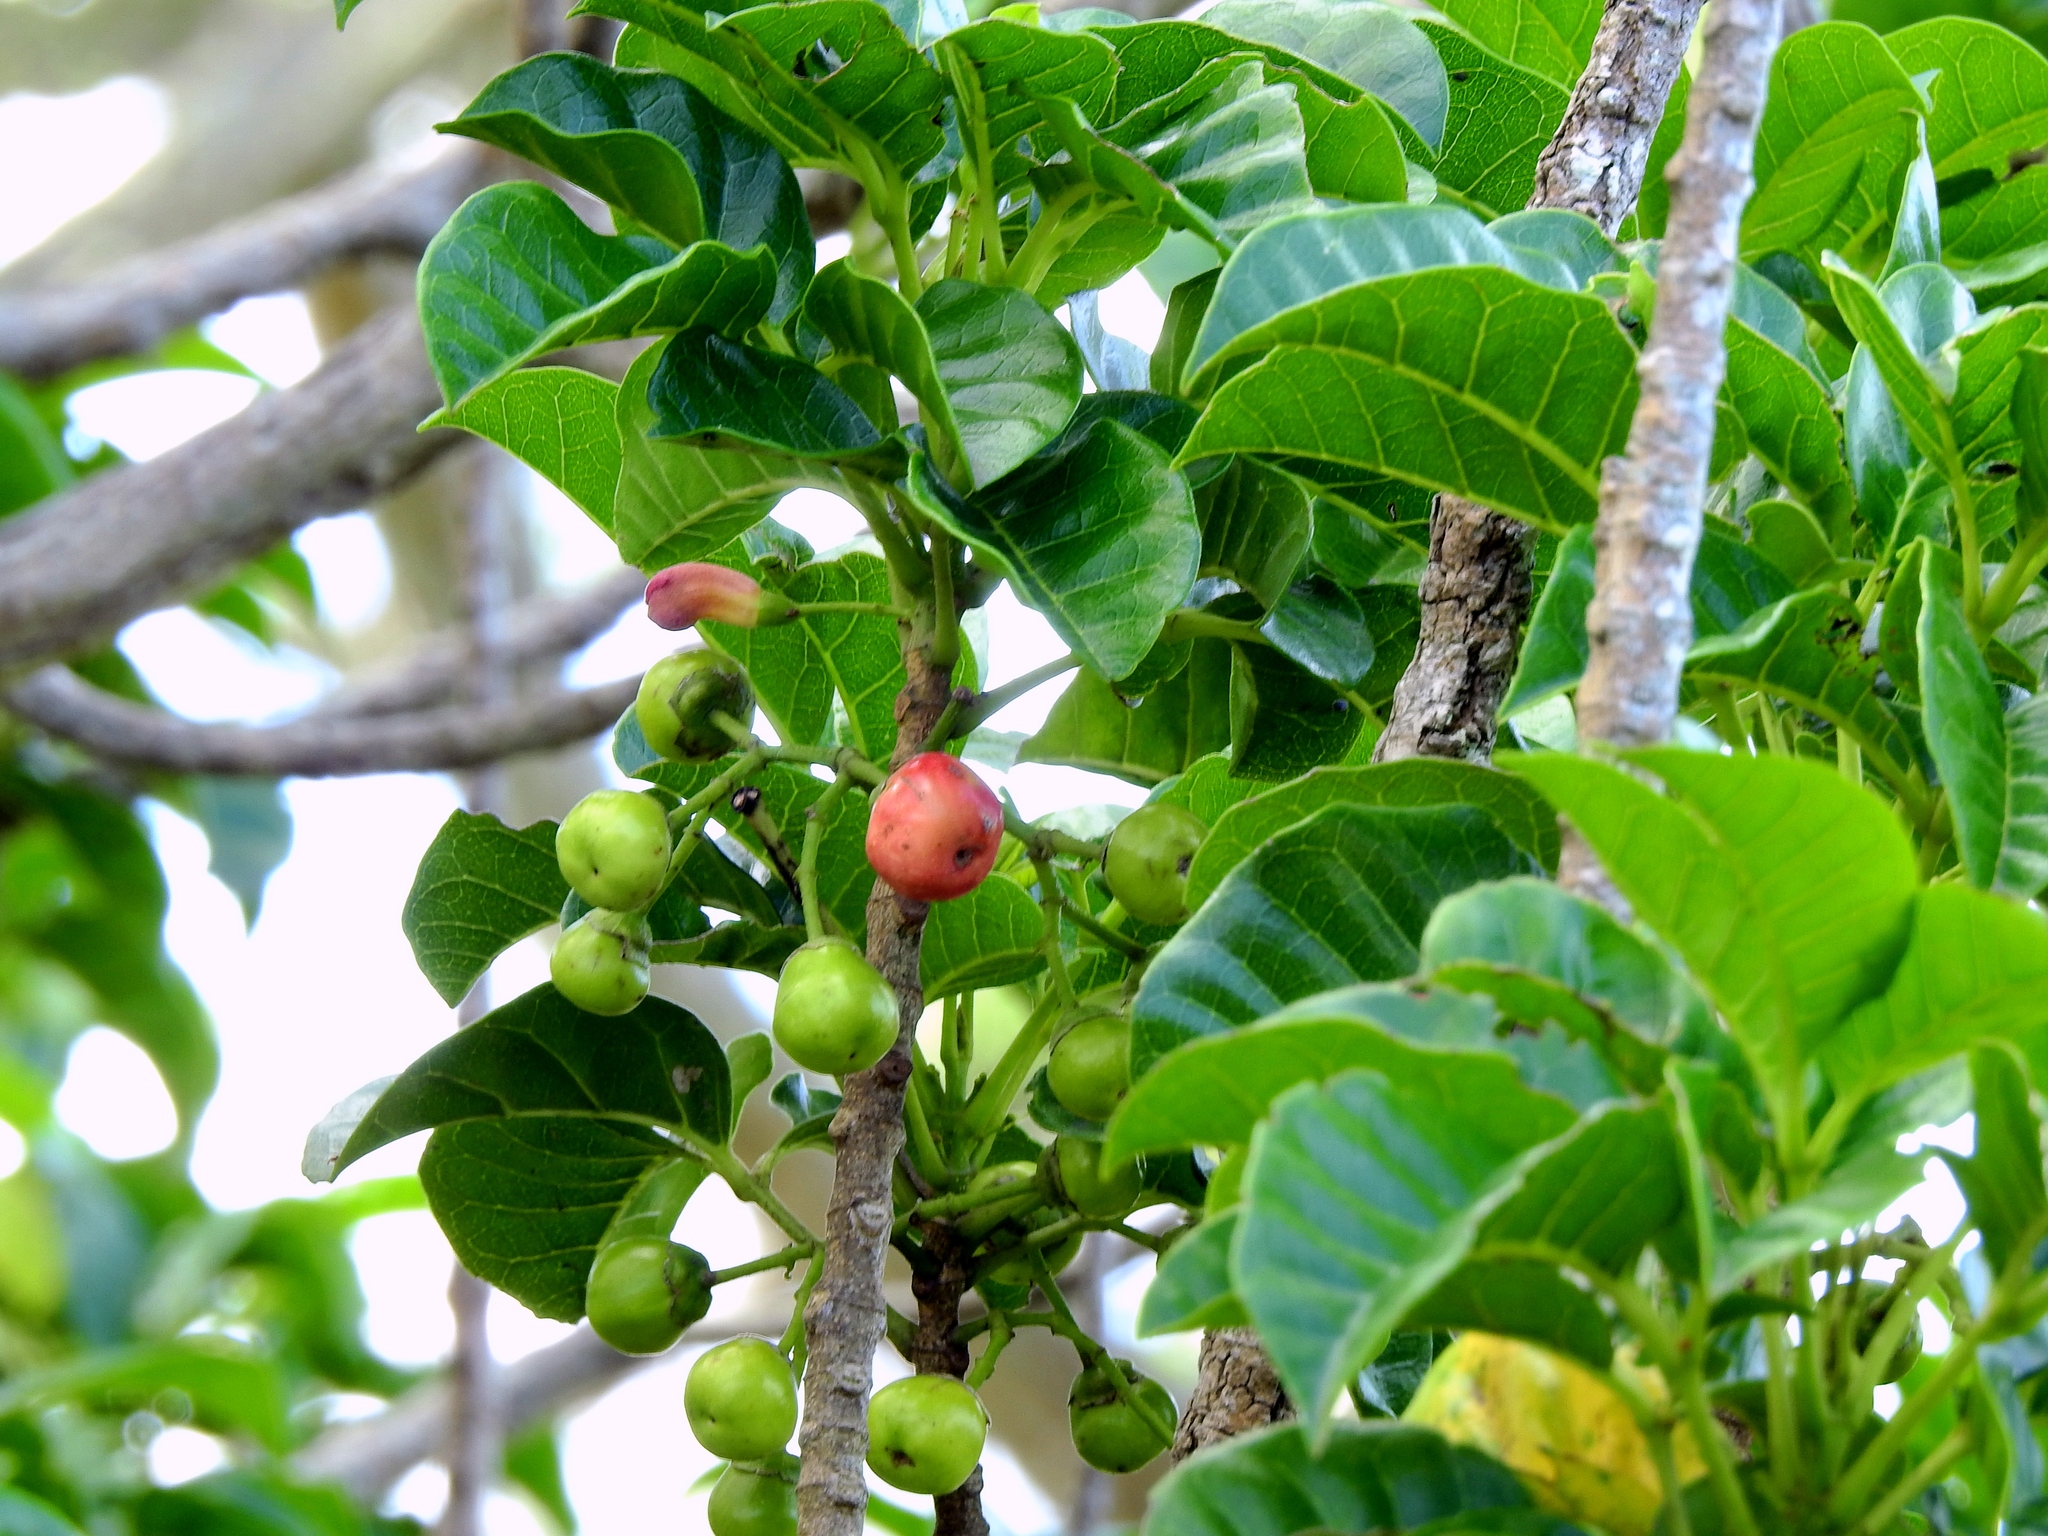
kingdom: Plantae
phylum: Tracheophyta
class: Magnoliopsida
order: Lamiales
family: Lamiaceae
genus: Vitex
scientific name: Vitex lucens
